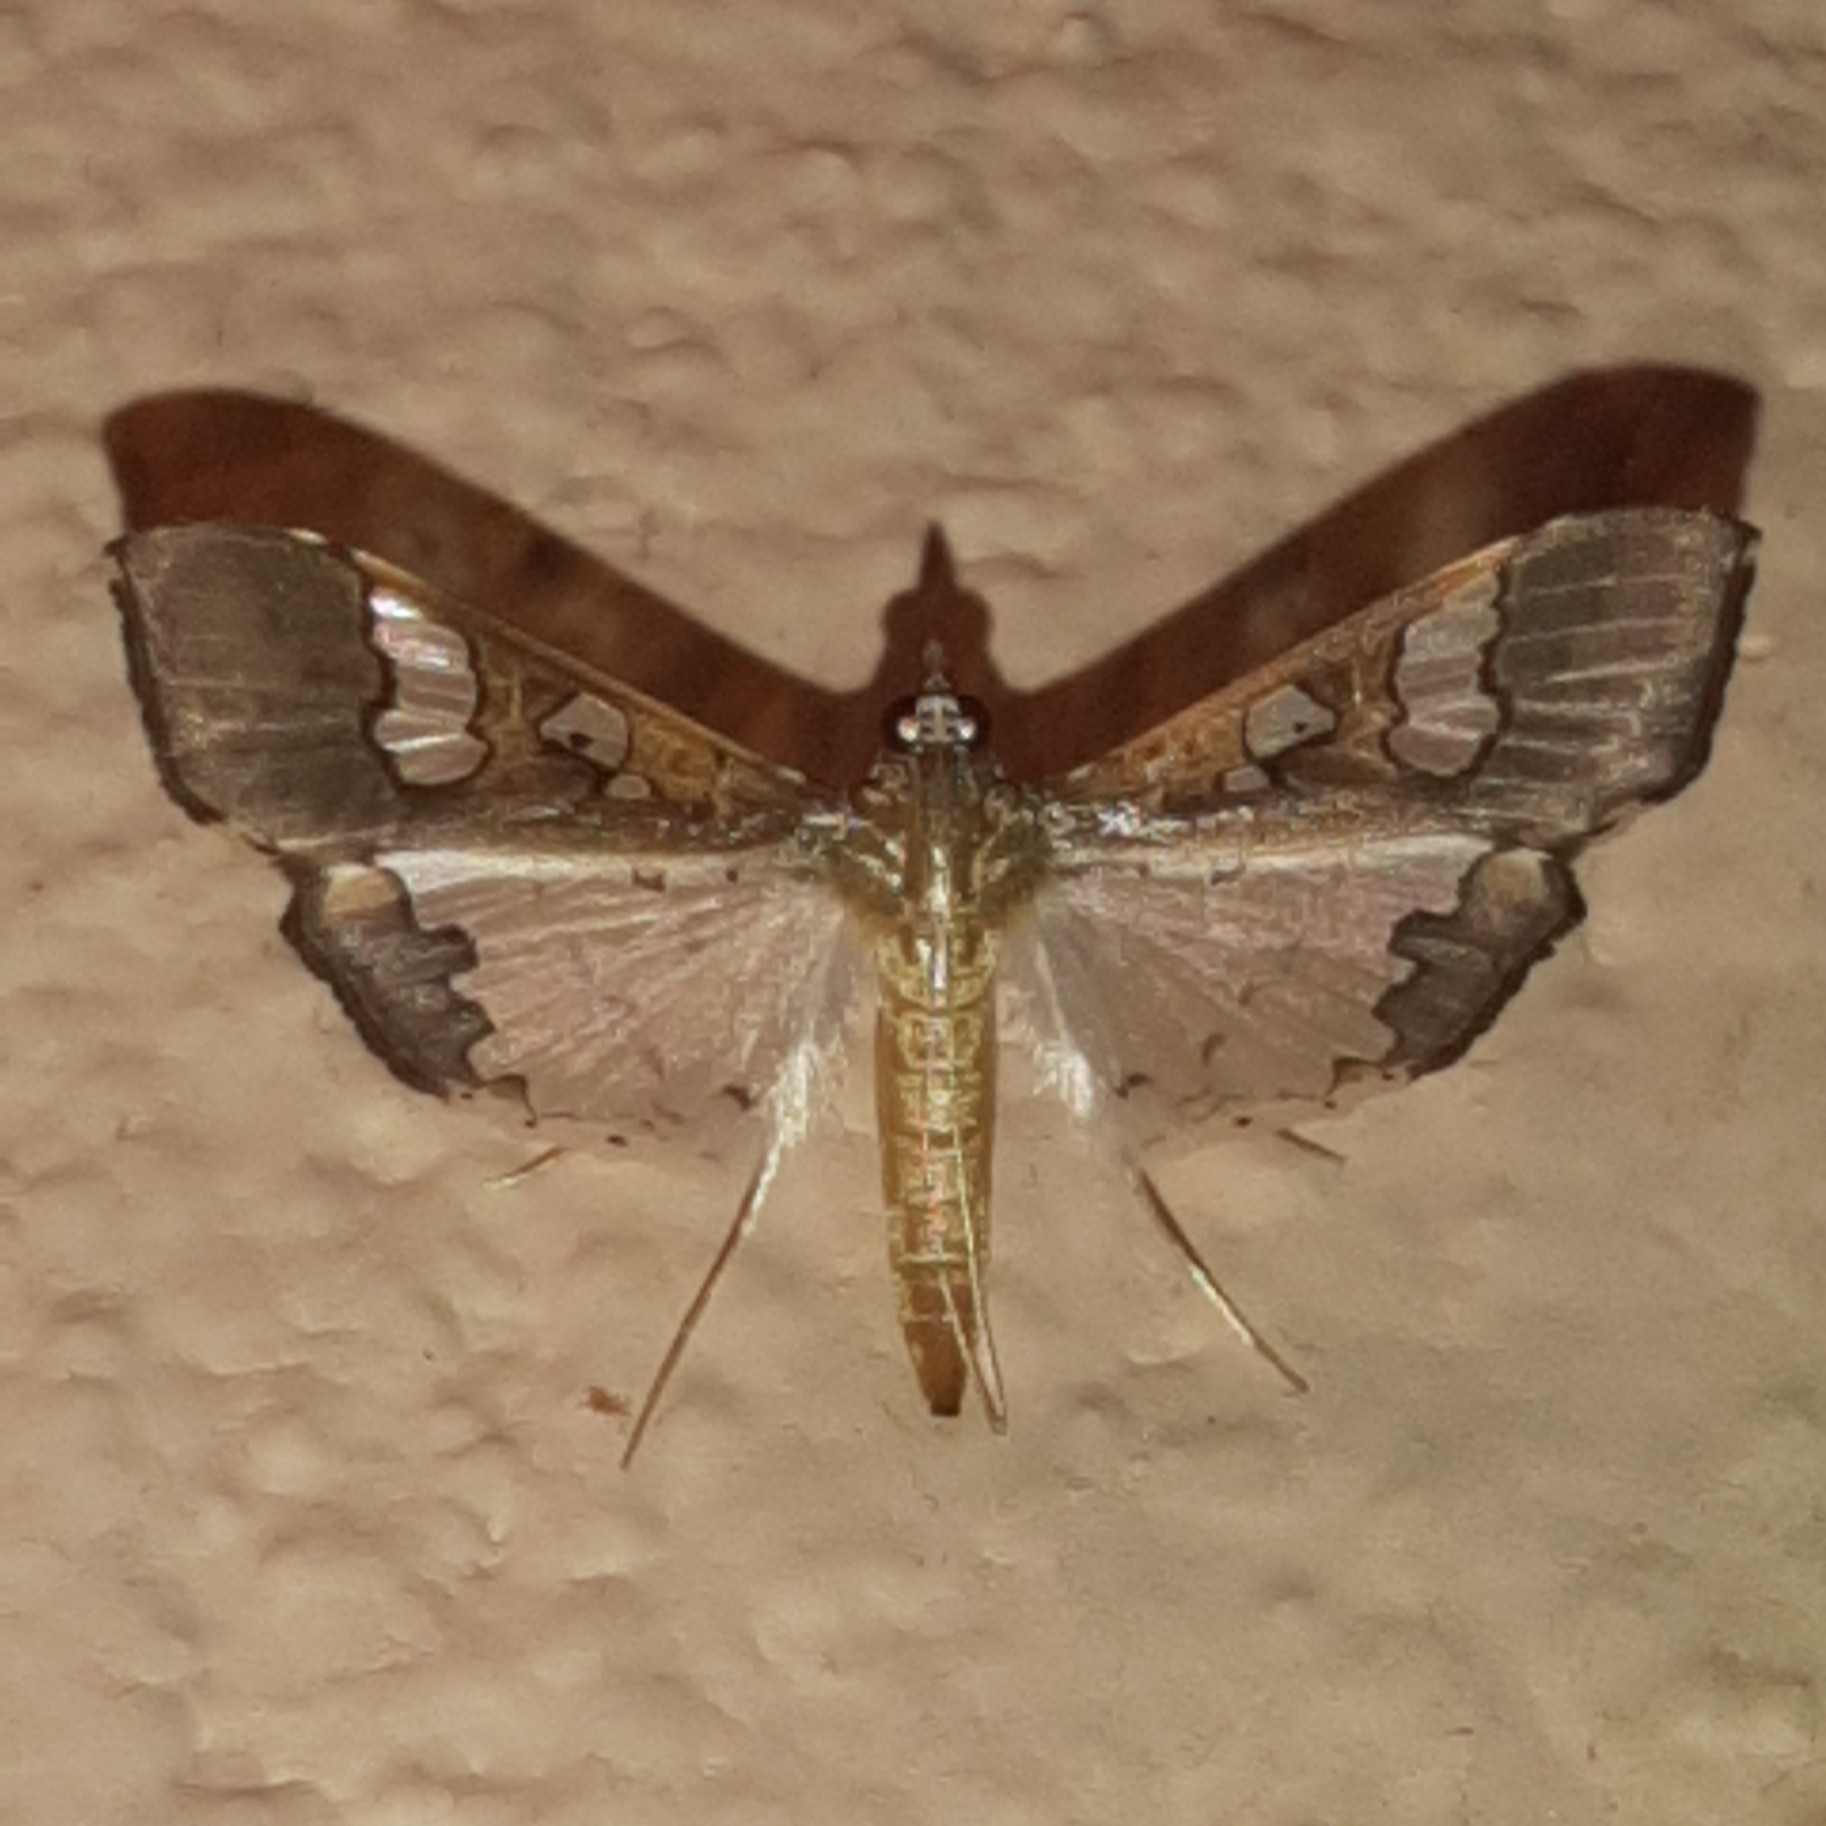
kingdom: Animalia
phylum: Arthropoda
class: Insecta
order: Lepidoptera
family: Crambidae
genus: Maruca
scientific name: Maruca vitrata
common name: Maruca pod borer
